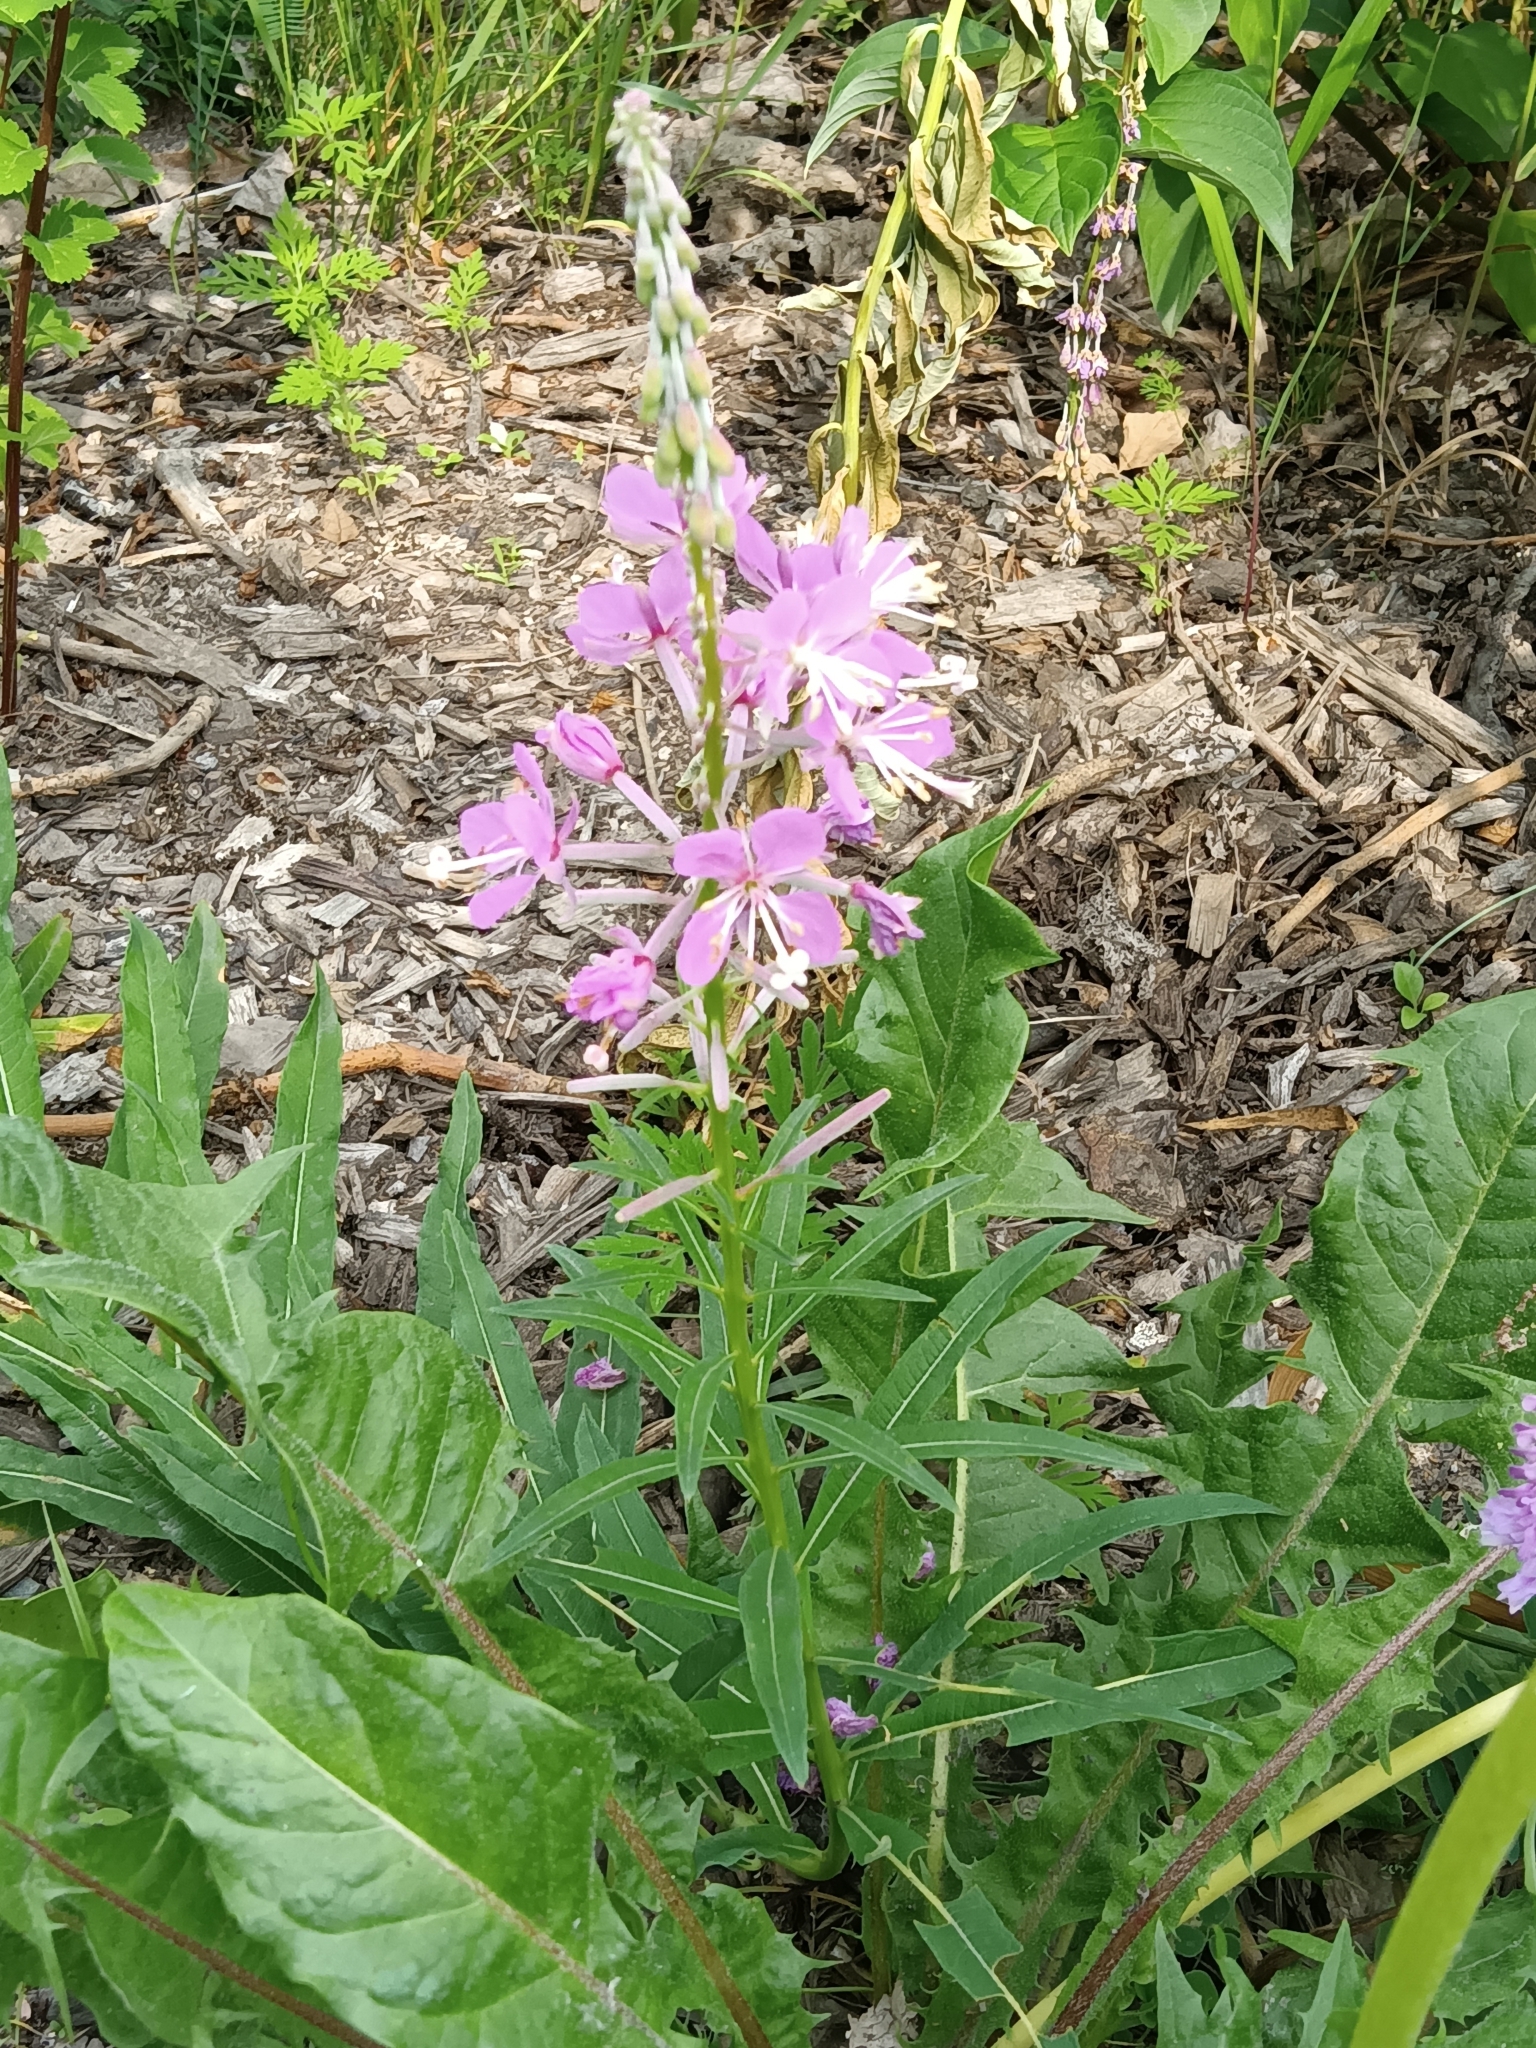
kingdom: Plantae
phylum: Tracheophyta
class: Magnoliopsida
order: Myrtales
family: Onagraceae
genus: Chamaenerion
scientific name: Chamaenerion angustifolium
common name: Fireweed
